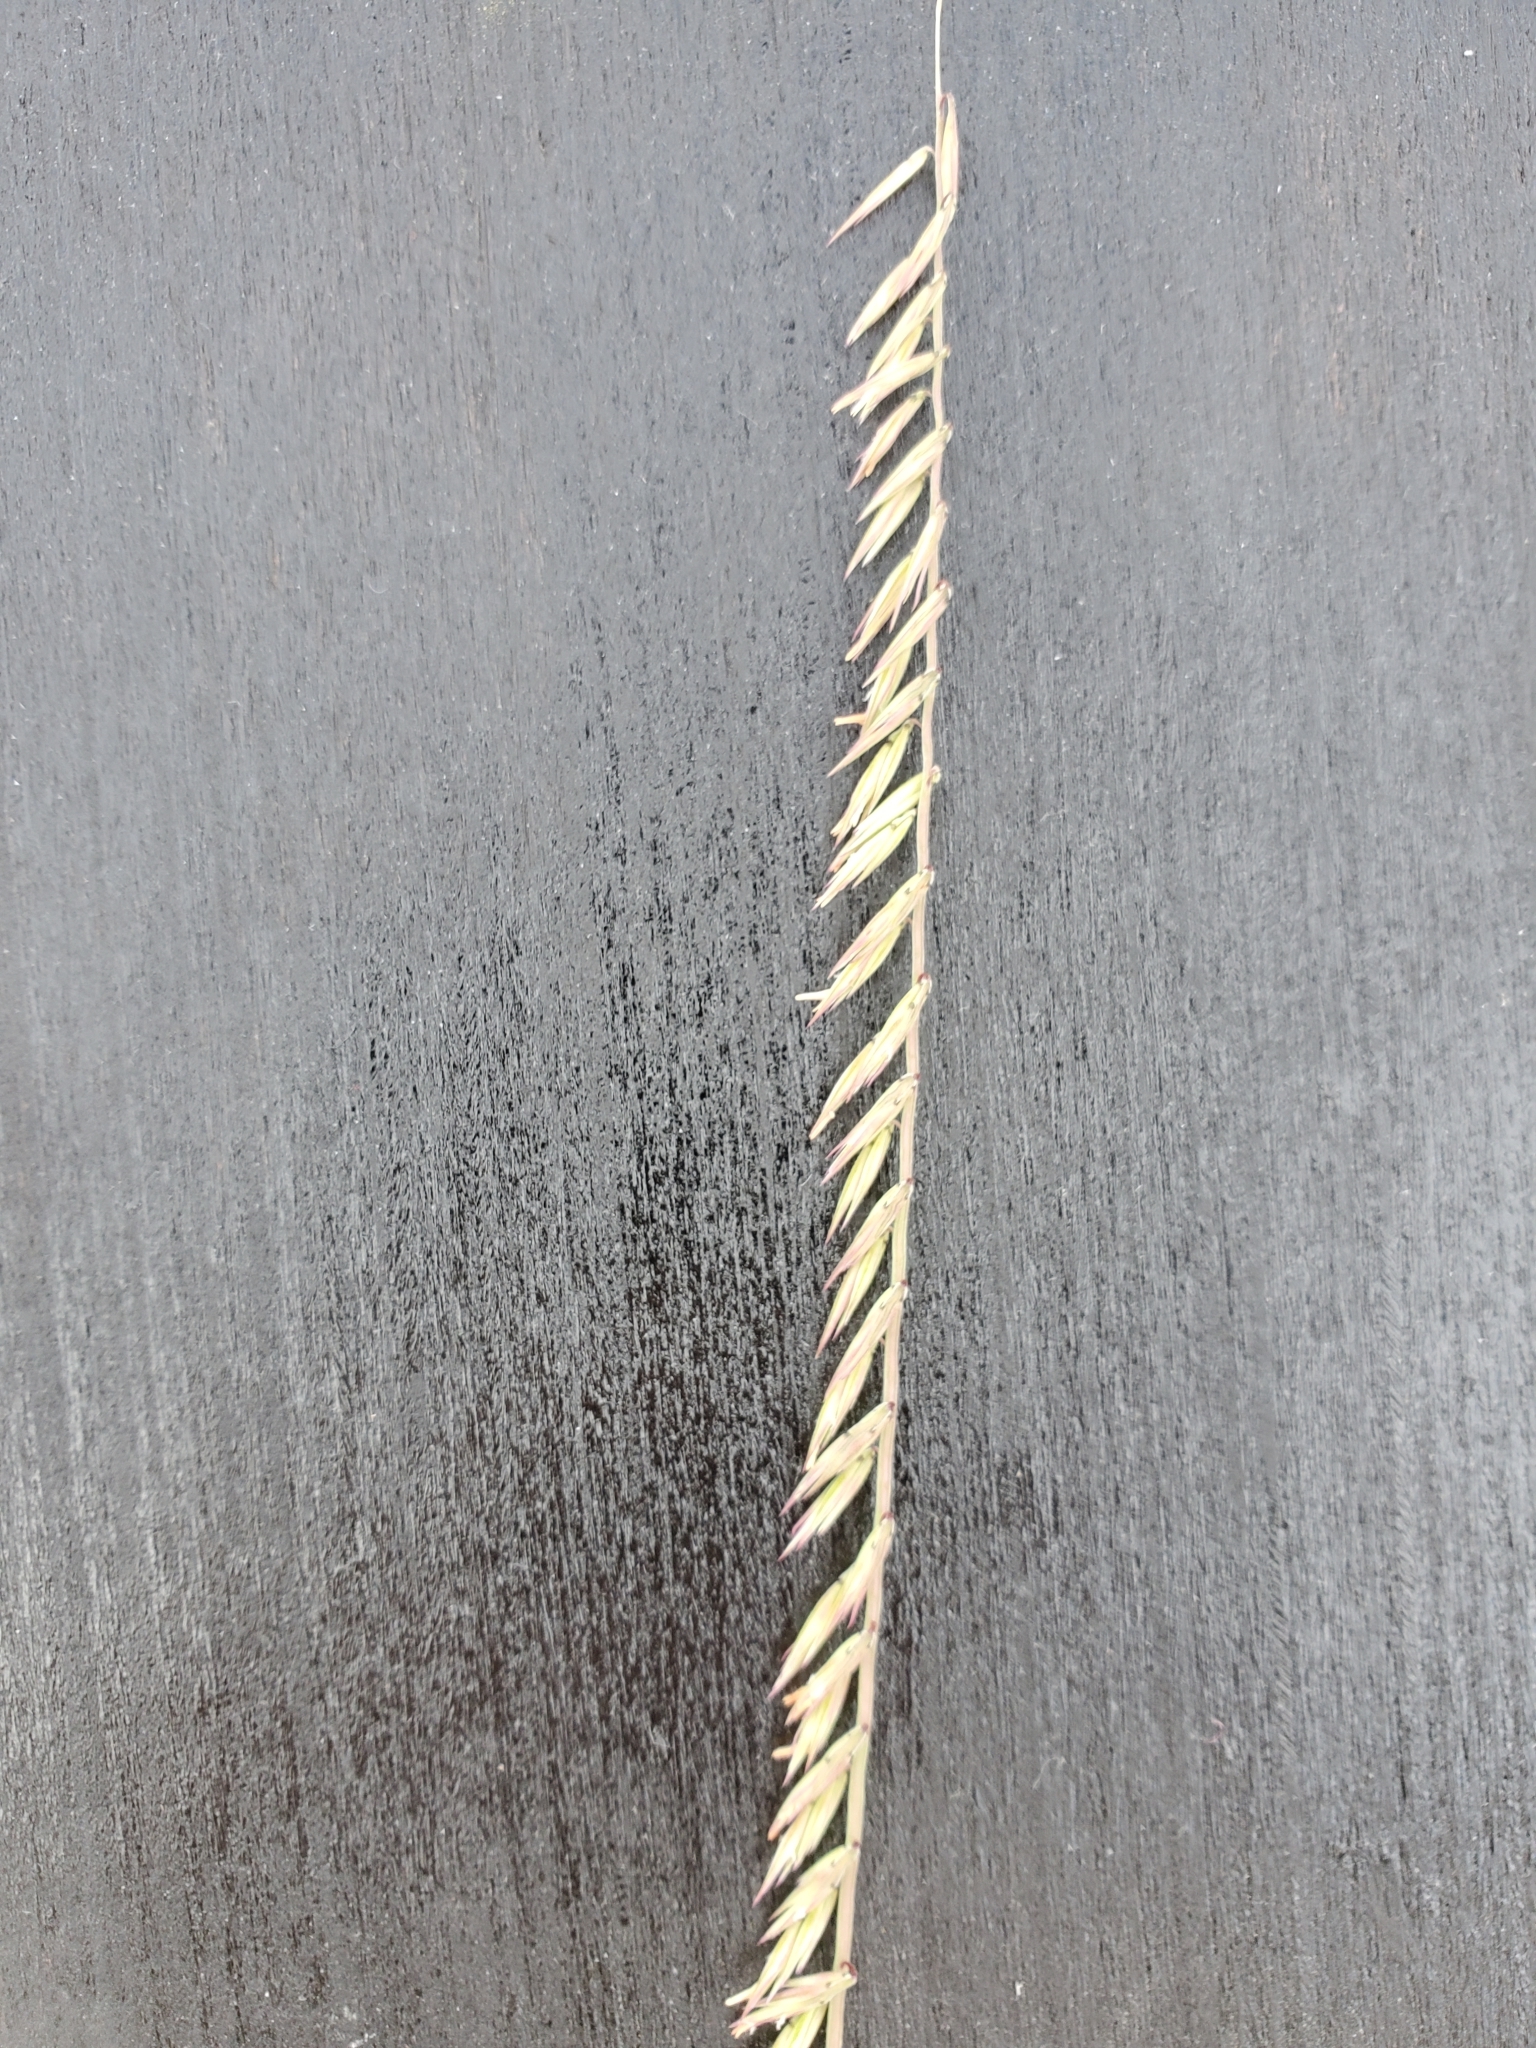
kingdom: Plantae
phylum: Tracheophyta
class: Liliopsida
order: Poales
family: Poaceae
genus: Bouteloua
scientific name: Bouteloua curtipendula
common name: Side-oats grama
